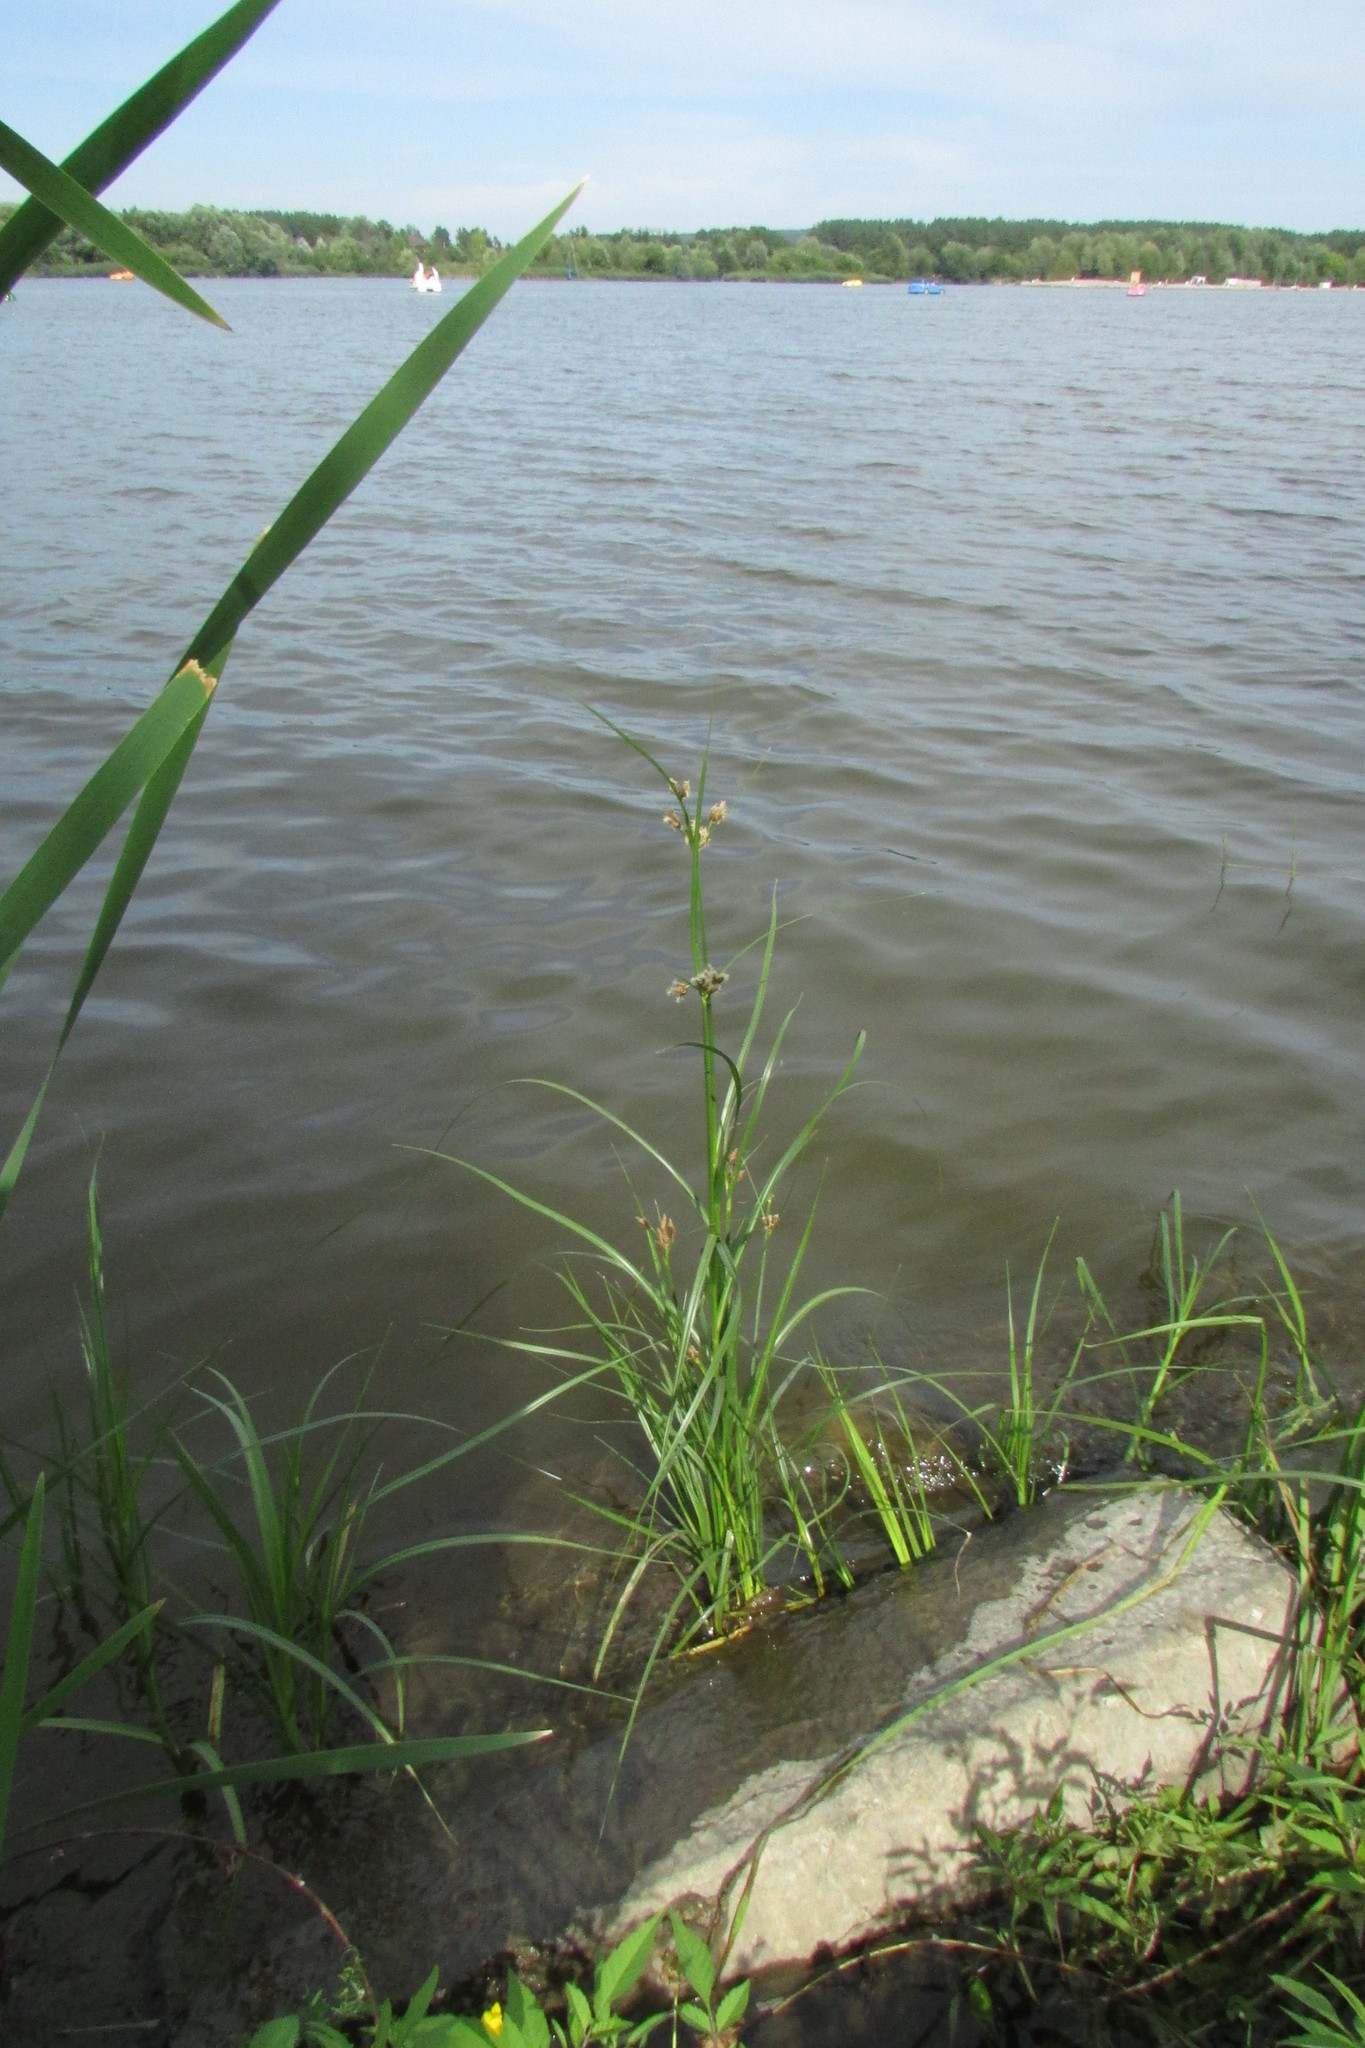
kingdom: Plantae
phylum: Tracheophyta
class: Liliopsida
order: Poales
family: Cyperaceae
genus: Bolboschoenus
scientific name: Bolboschoenus maritimus
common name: Sea club-rush
